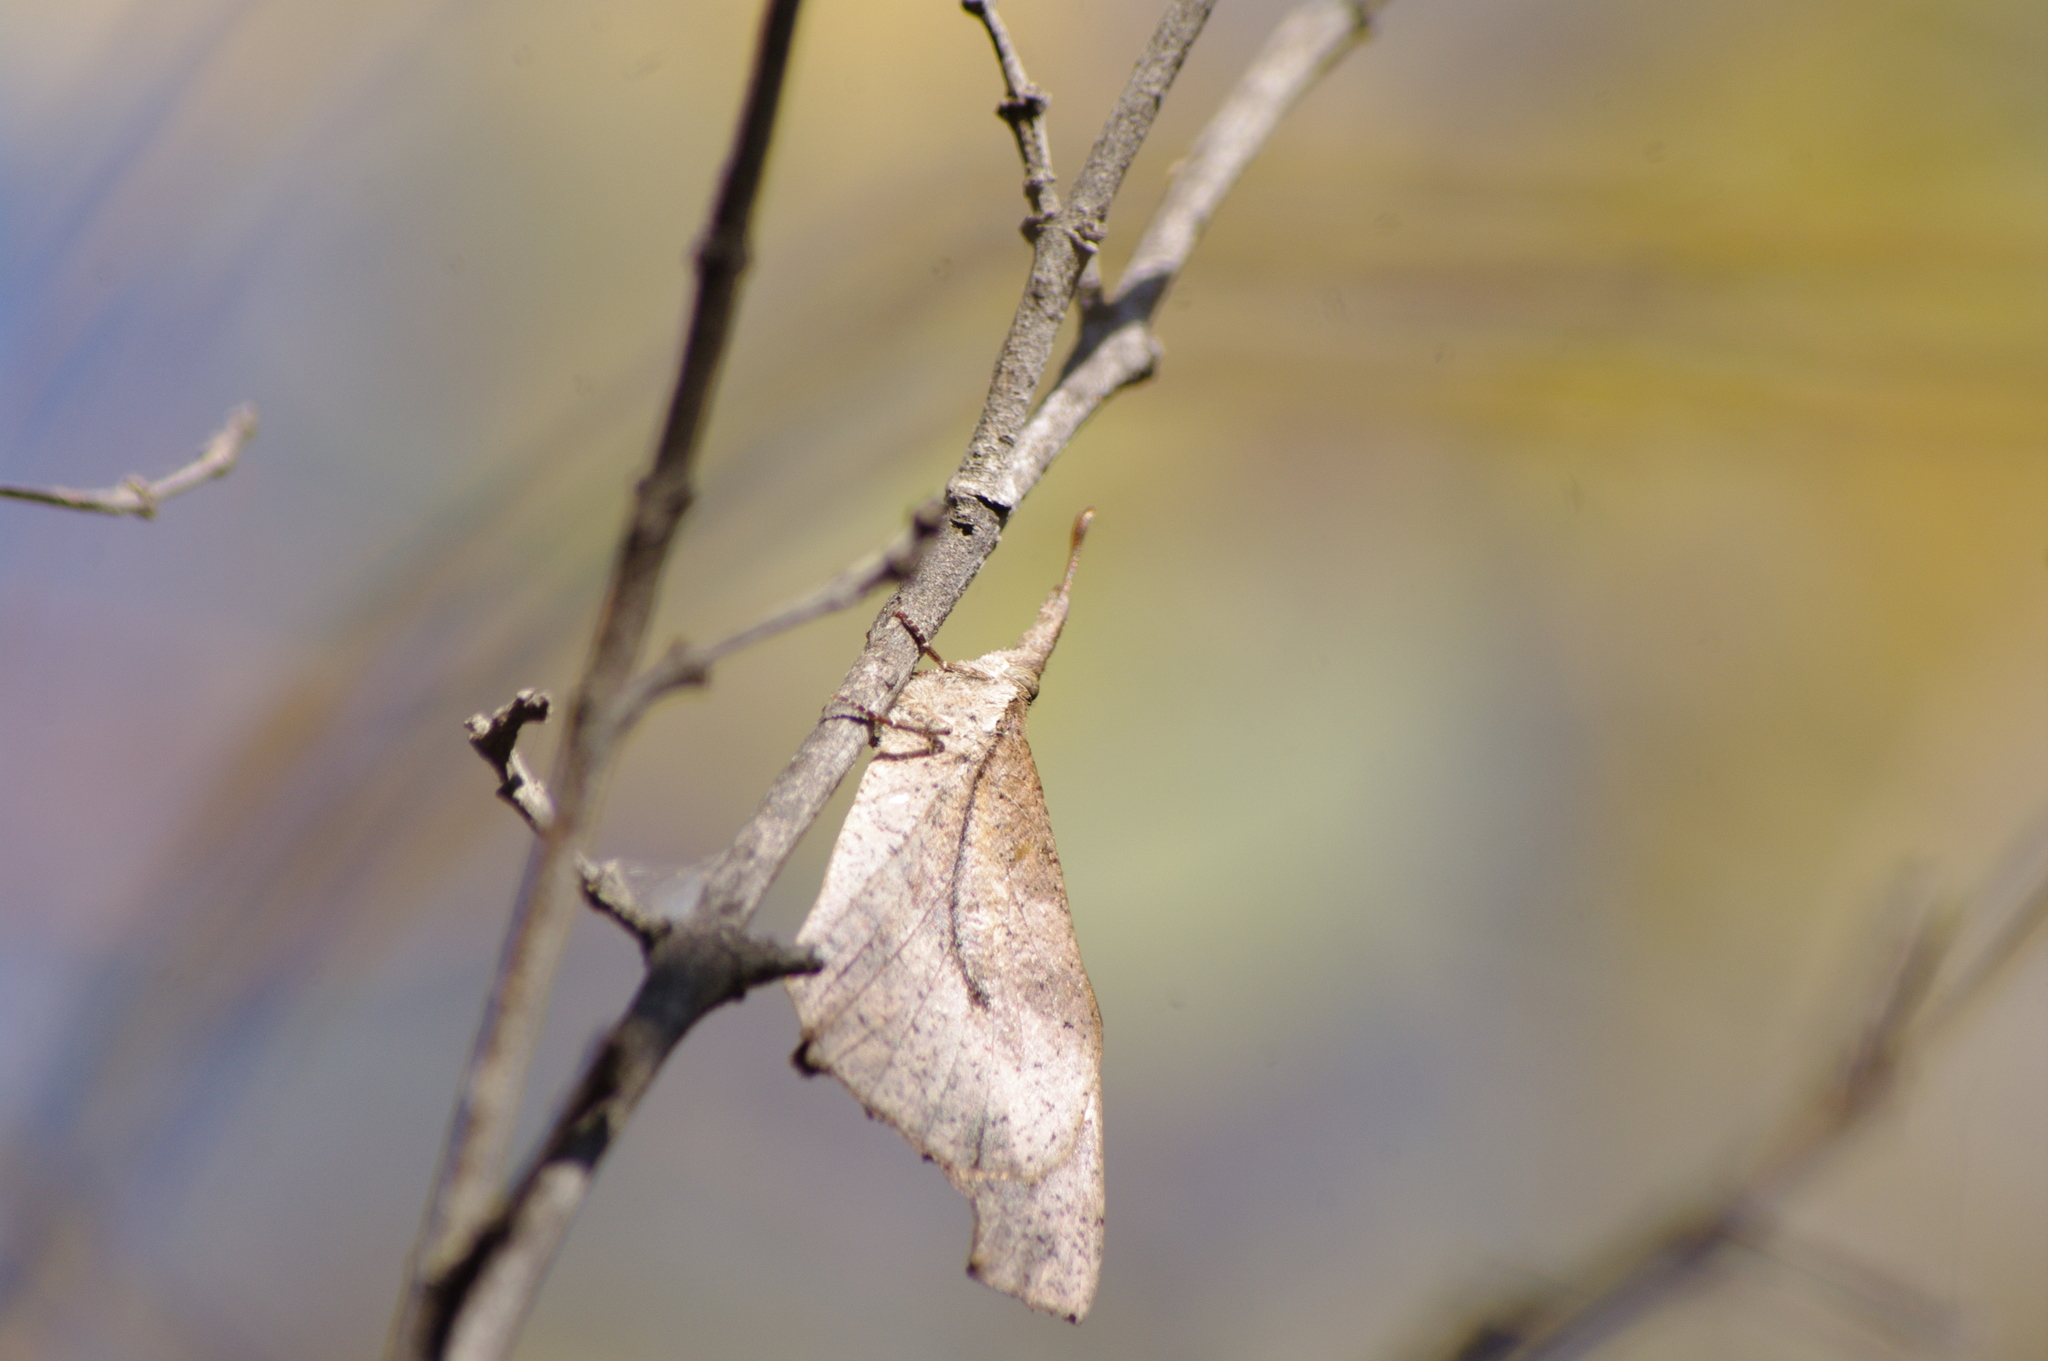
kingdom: Animalia
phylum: Arthropoda
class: Insecta
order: Lepidoptera
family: Nymphalidae
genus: Libythea
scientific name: Libythea laius
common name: African snout
